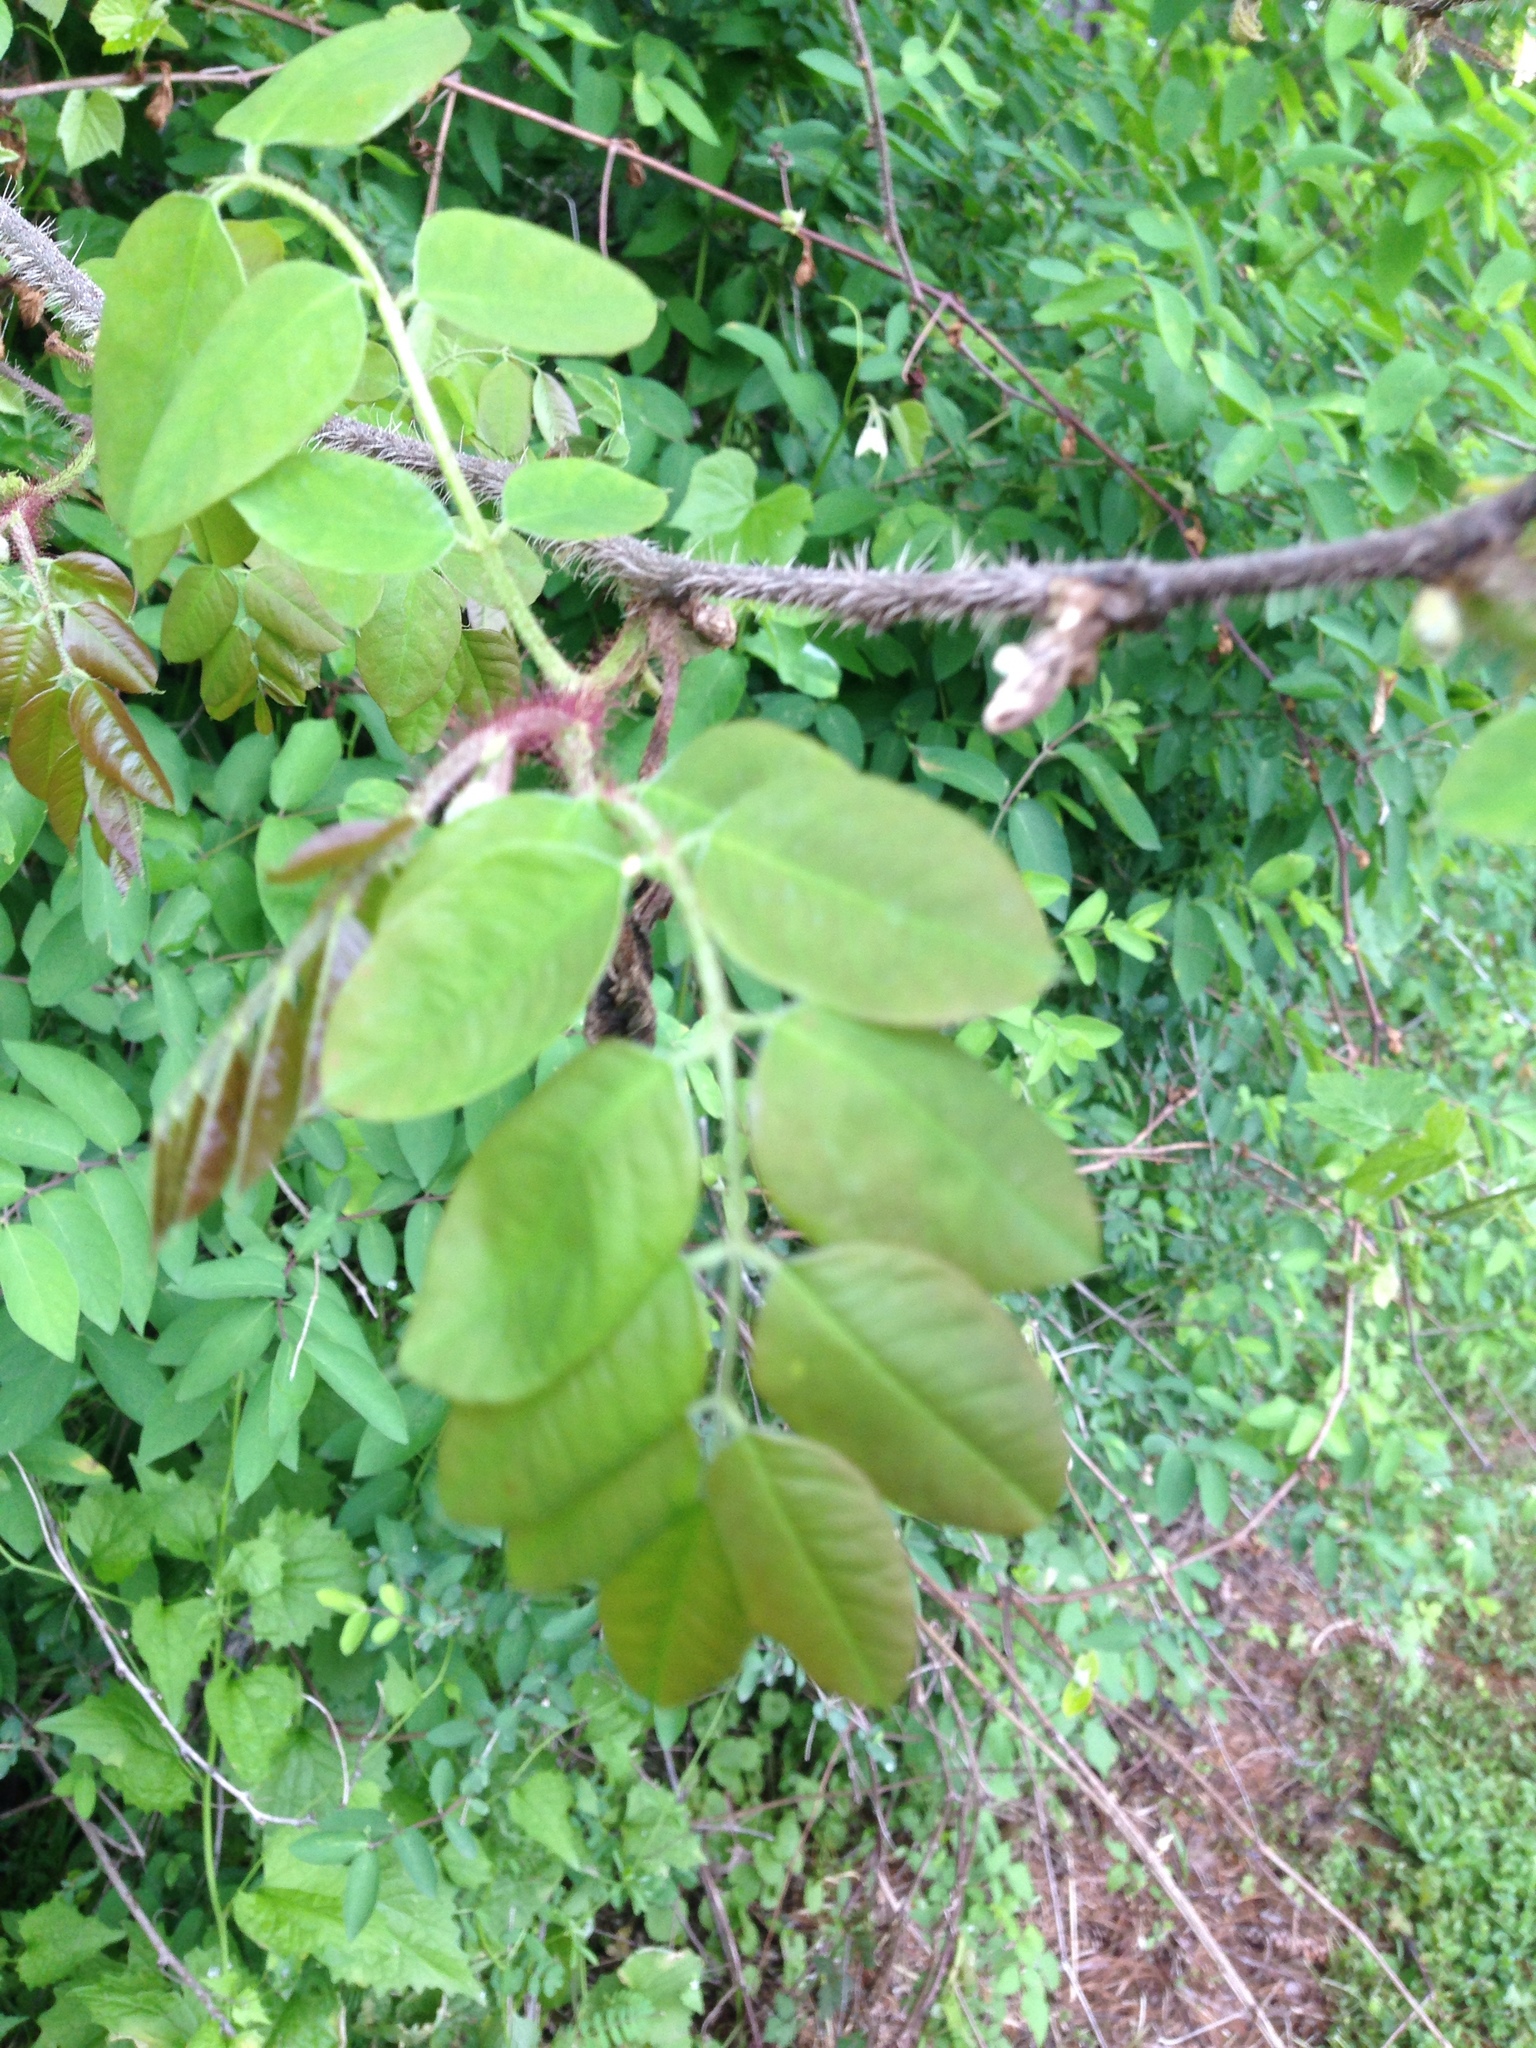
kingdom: Plantae
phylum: Tracheophyta
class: Magnoliopsida
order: Fabales
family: Fabaceae
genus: Robinia
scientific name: Robinia hispida
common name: Bristly locust
